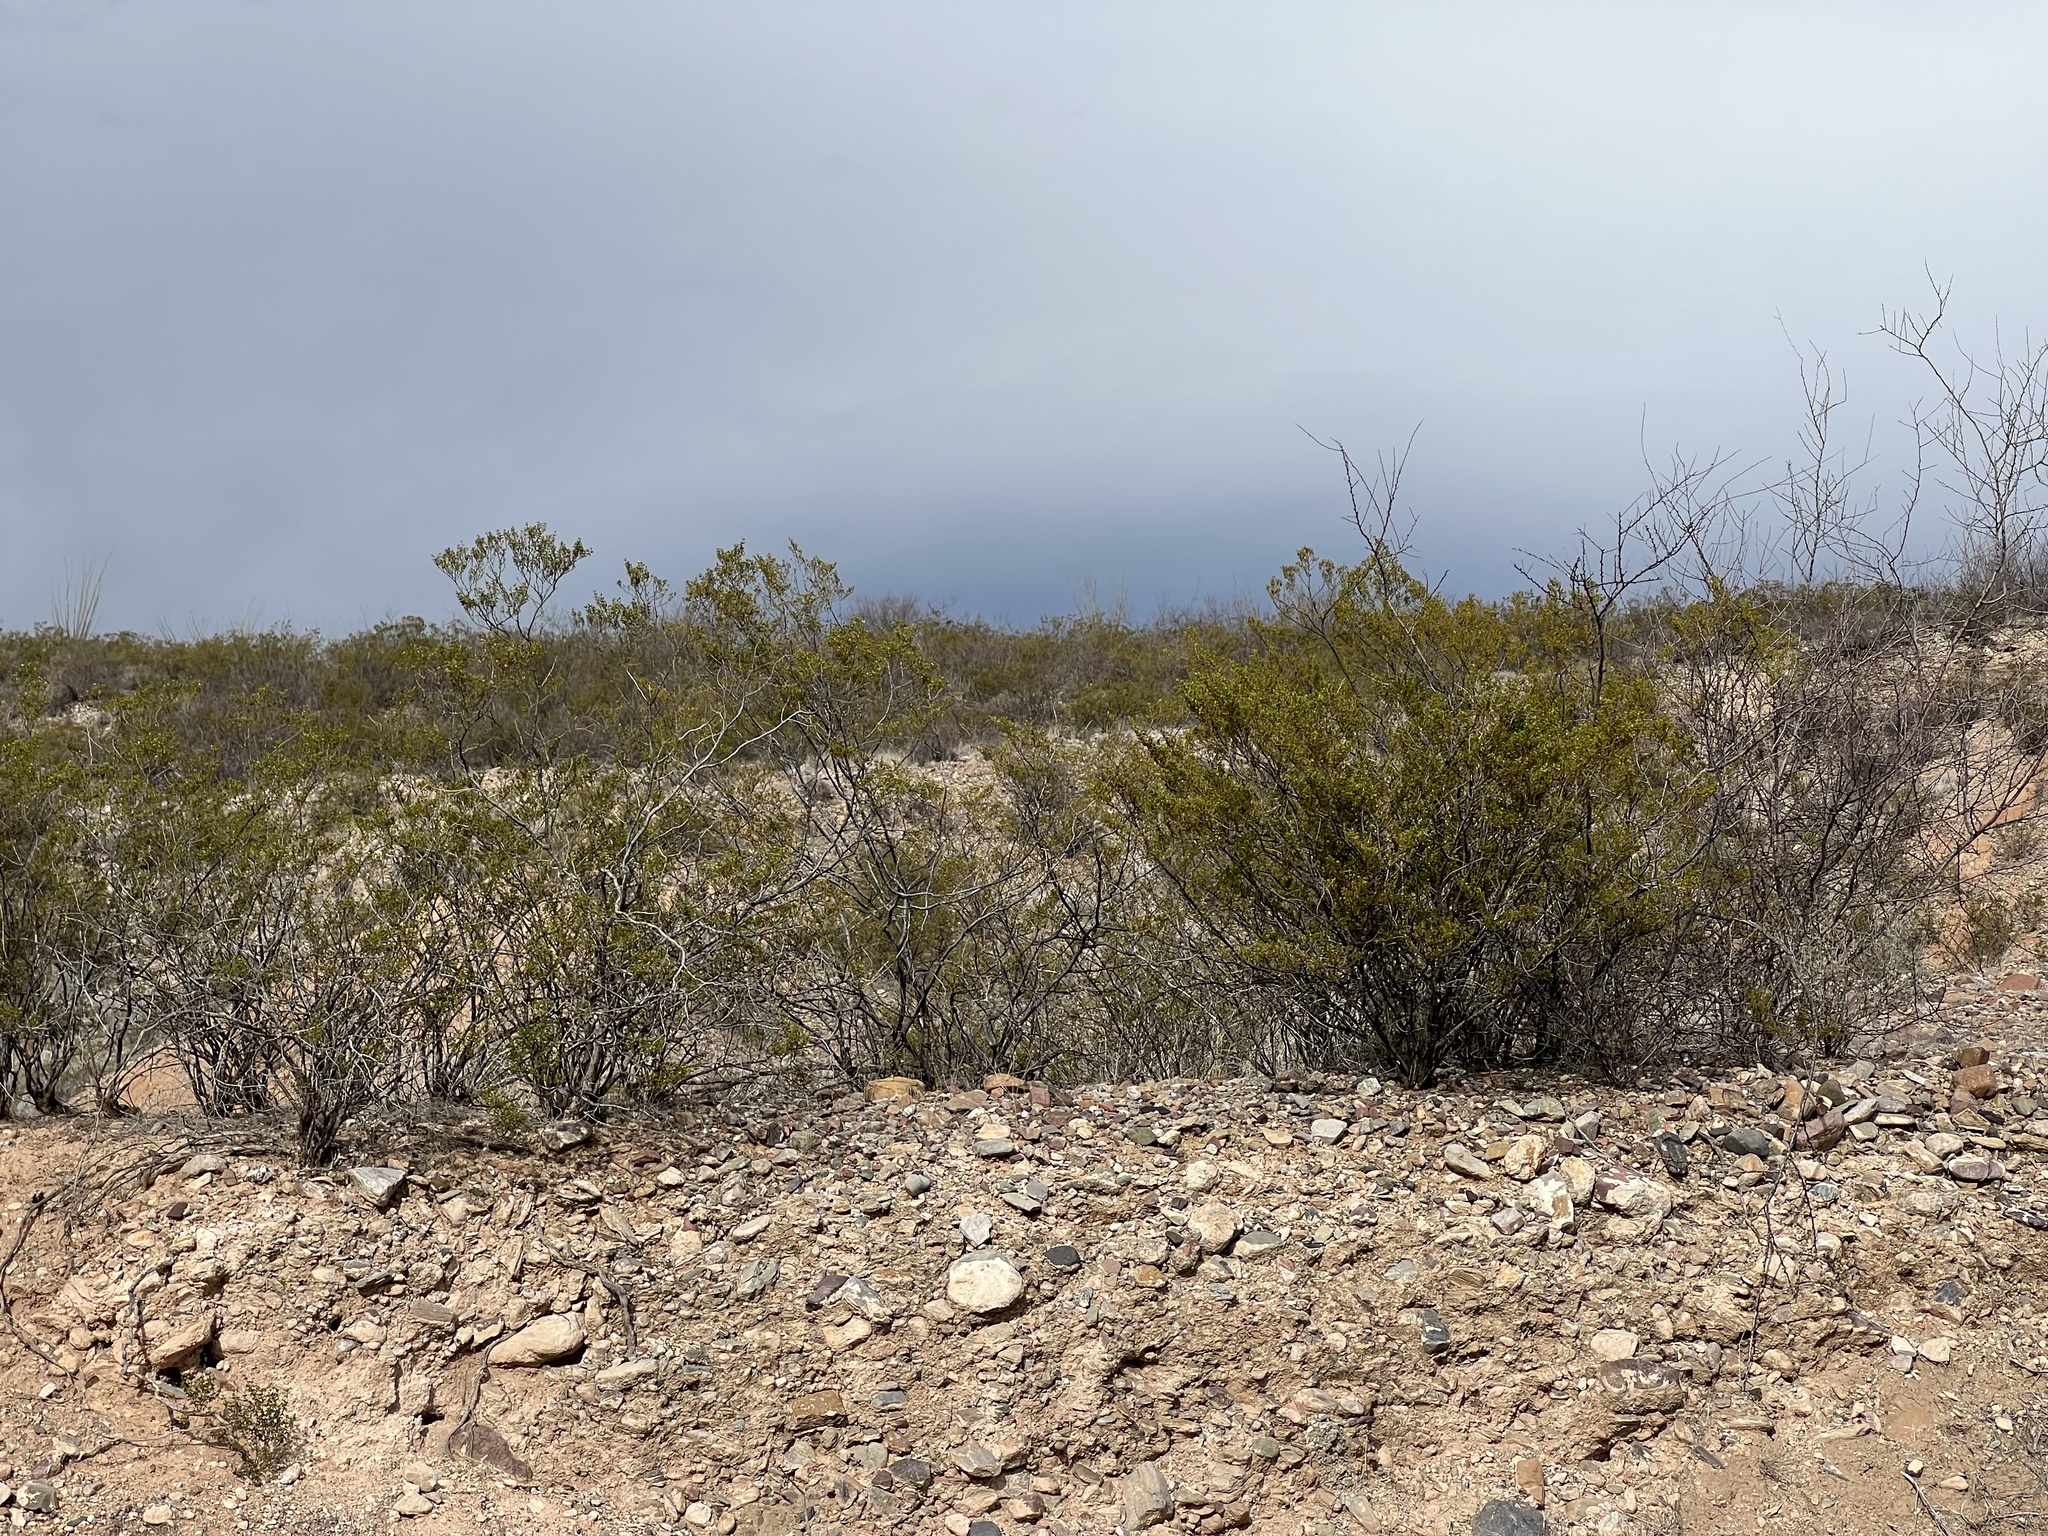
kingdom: Plantae
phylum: Tracheophyta
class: Magnoliopsida
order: Zygophyllales
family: Zygophyllaceae
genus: Larrea
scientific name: Larrea tridentata
